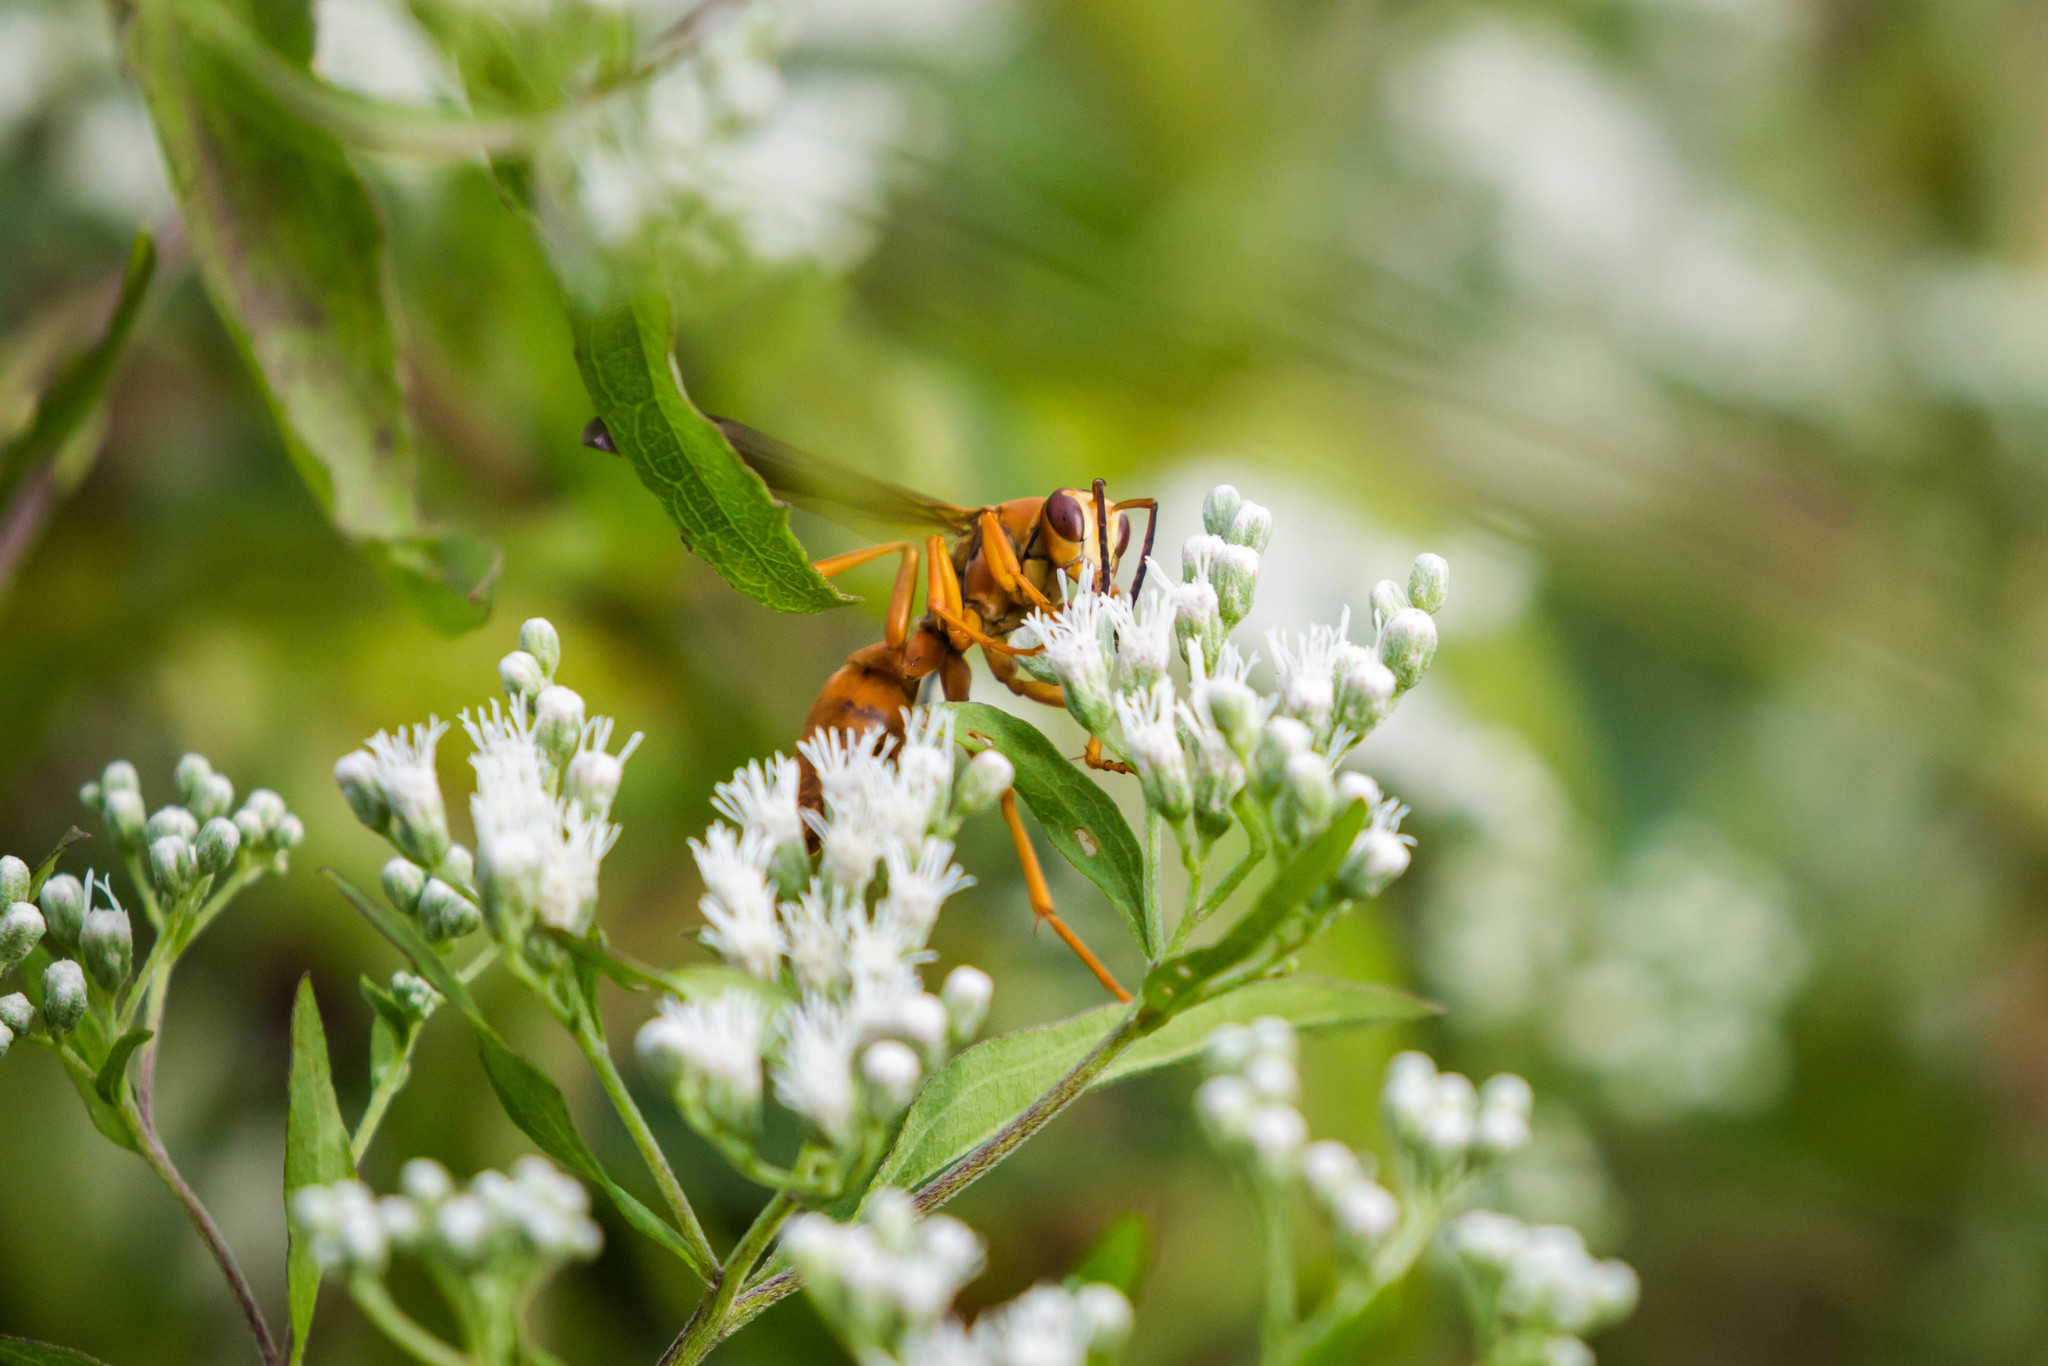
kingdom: Animalia
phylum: Arthropoda
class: Insecta
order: Hymenoptera
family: Eumenidae
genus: Polistes
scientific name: Polistes carolina
